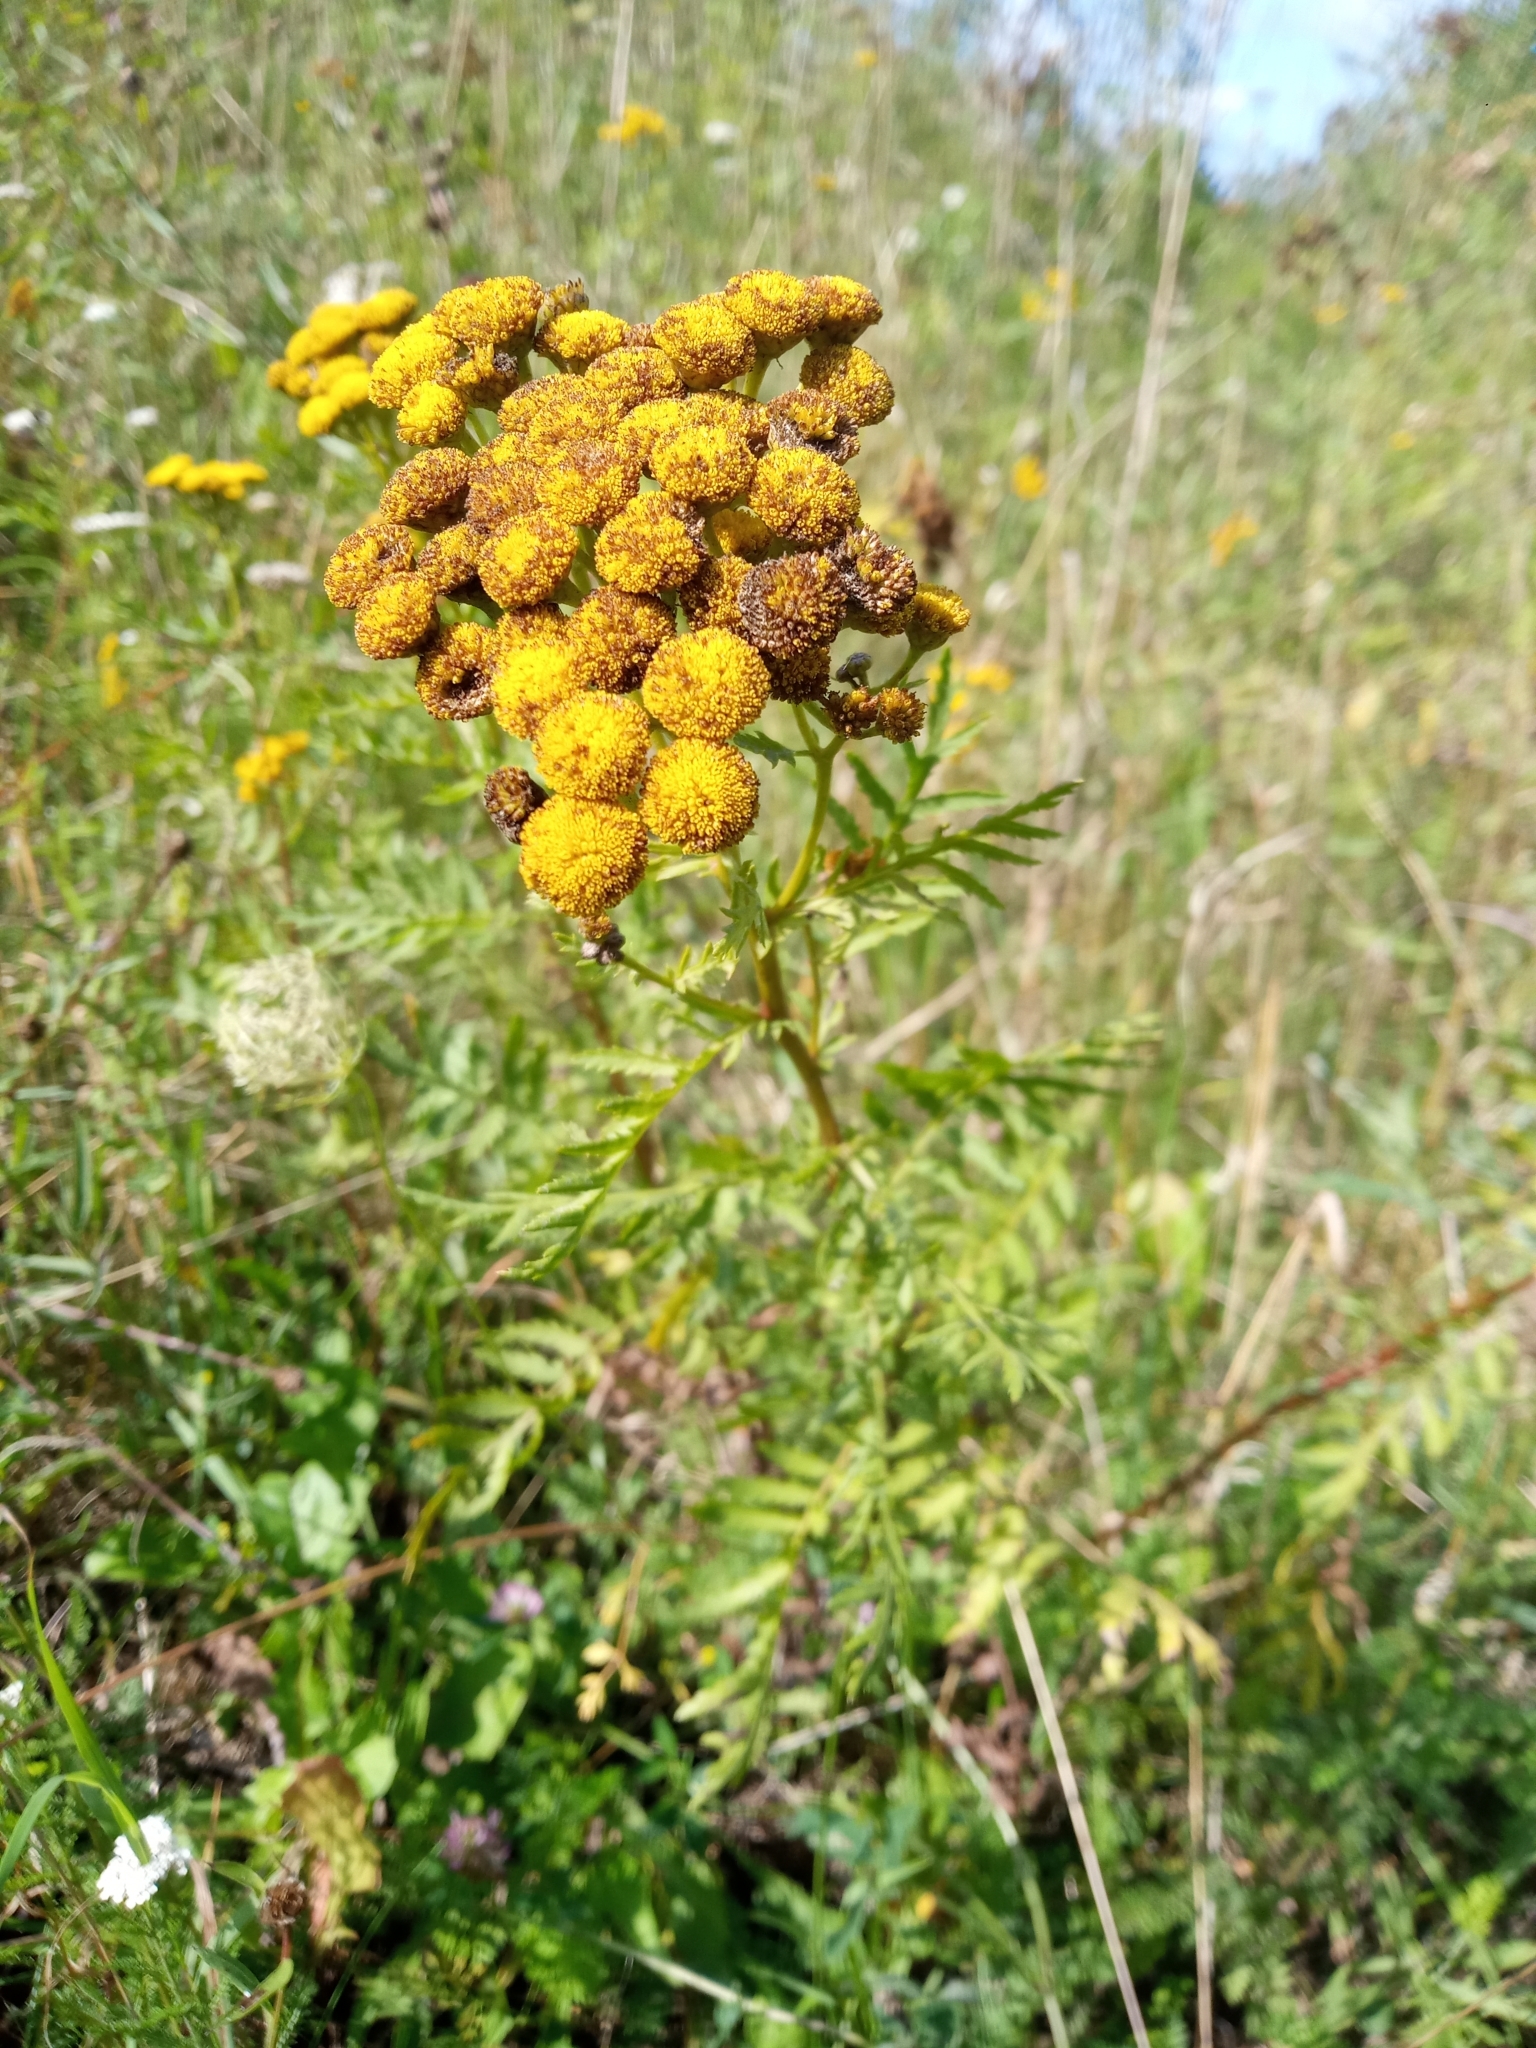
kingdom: Plantae
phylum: Tracheophyta
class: Magnoliopsida
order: Asterales
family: Asteraceae
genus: Tanacetum
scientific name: Tanacetum vulgare
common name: Common tansy
